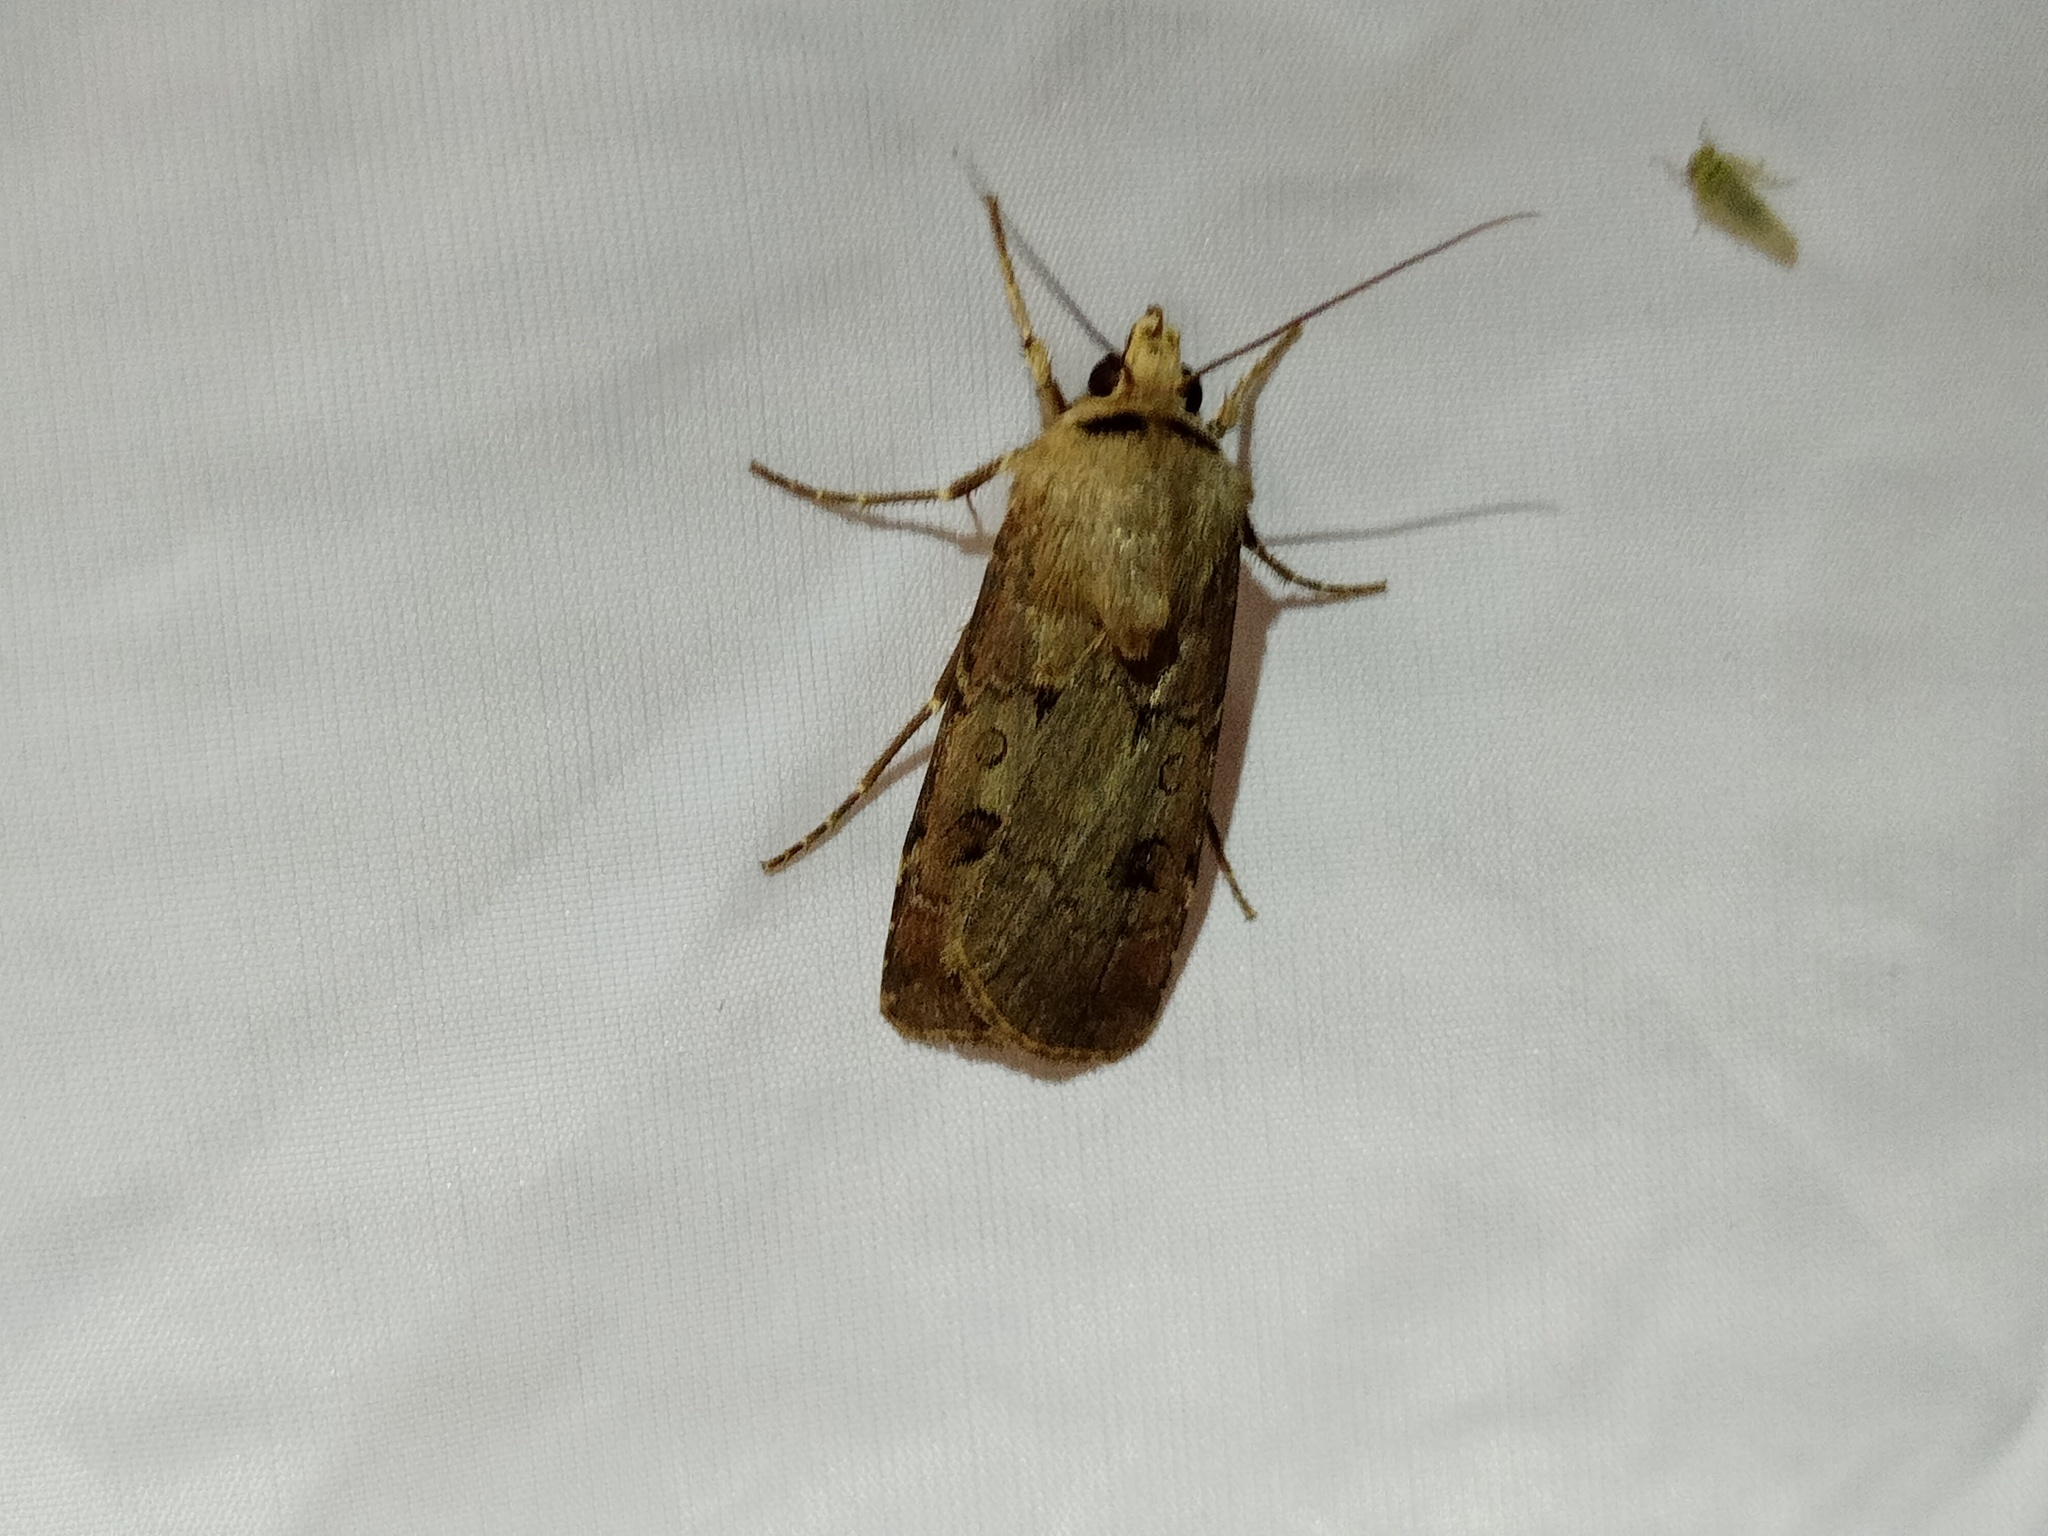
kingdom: Animalia
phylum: Arthropoda
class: Insecta
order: Lepidoptera
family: Noctuidae
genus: Agrotis
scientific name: Agrotis exclamationis
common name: Heart and dart
